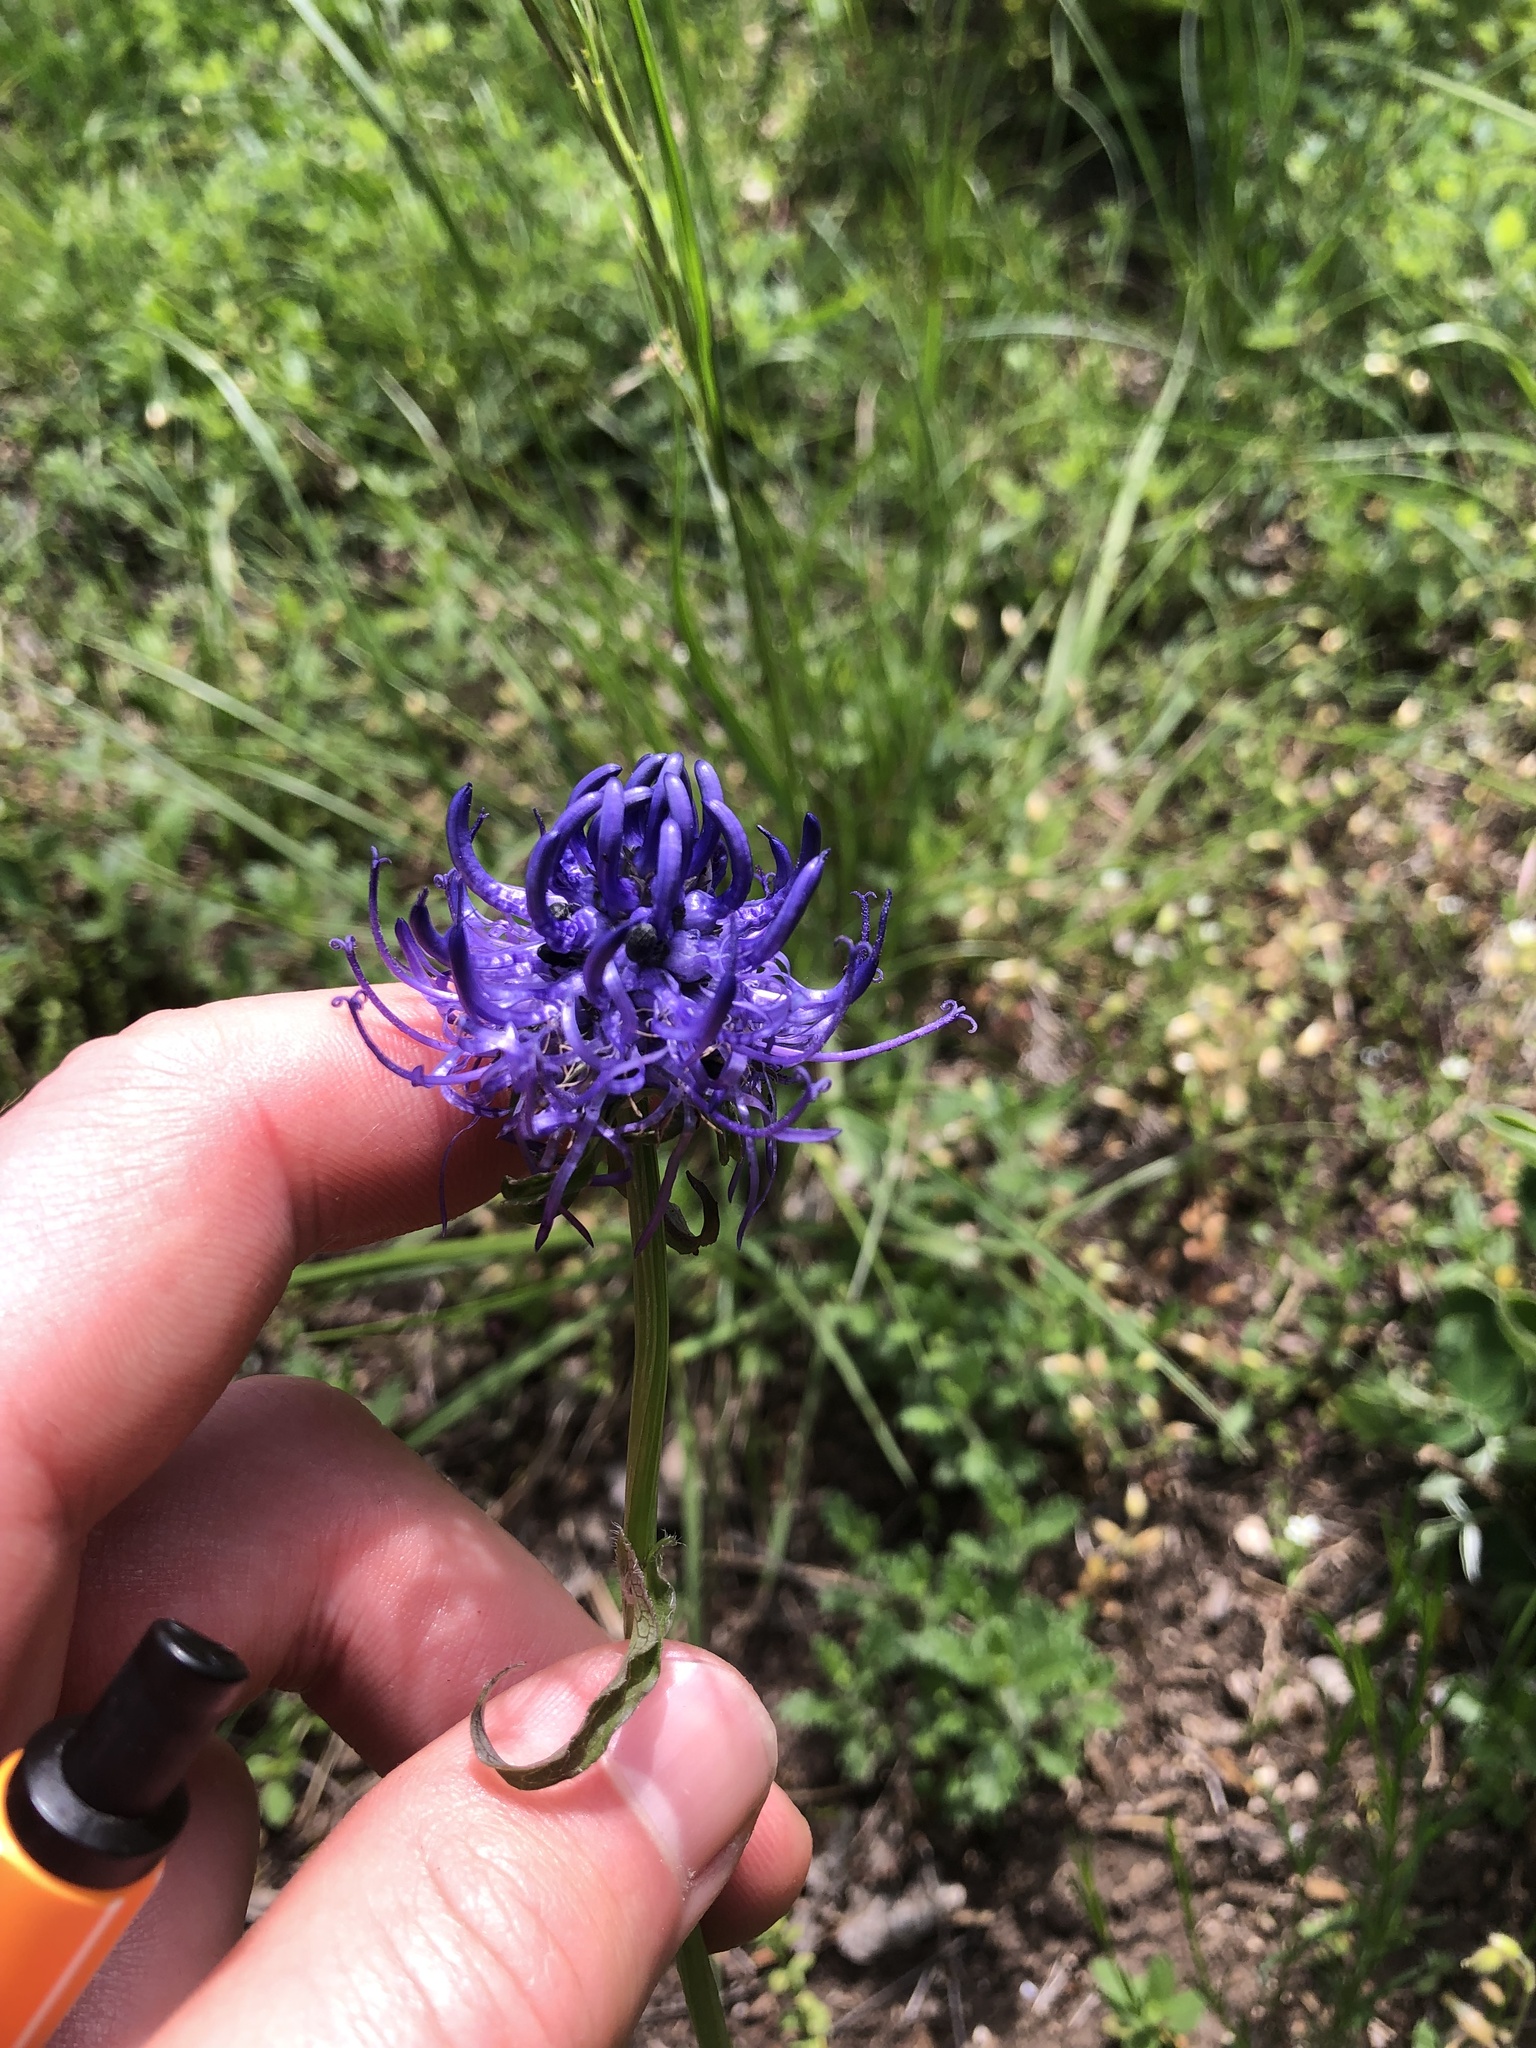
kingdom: Plantae
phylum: Tracheophyta
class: Magnoliopsida
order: Asterales
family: Campanulaceae
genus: Phyteuma
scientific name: Phyteuma orbiculare
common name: Round-headed rampion
